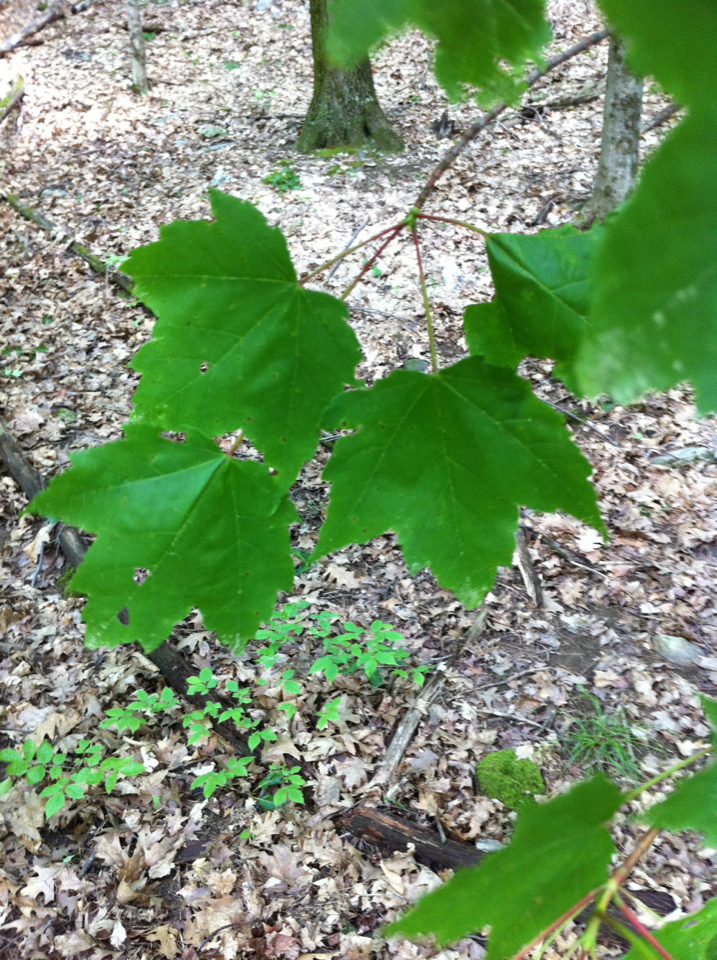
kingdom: Plantae
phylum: Tracheophyta
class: Magnoliopsida
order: Sapindales
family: Sapindaceae
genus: Acer
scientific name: Acer rubrum
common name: Red maple
